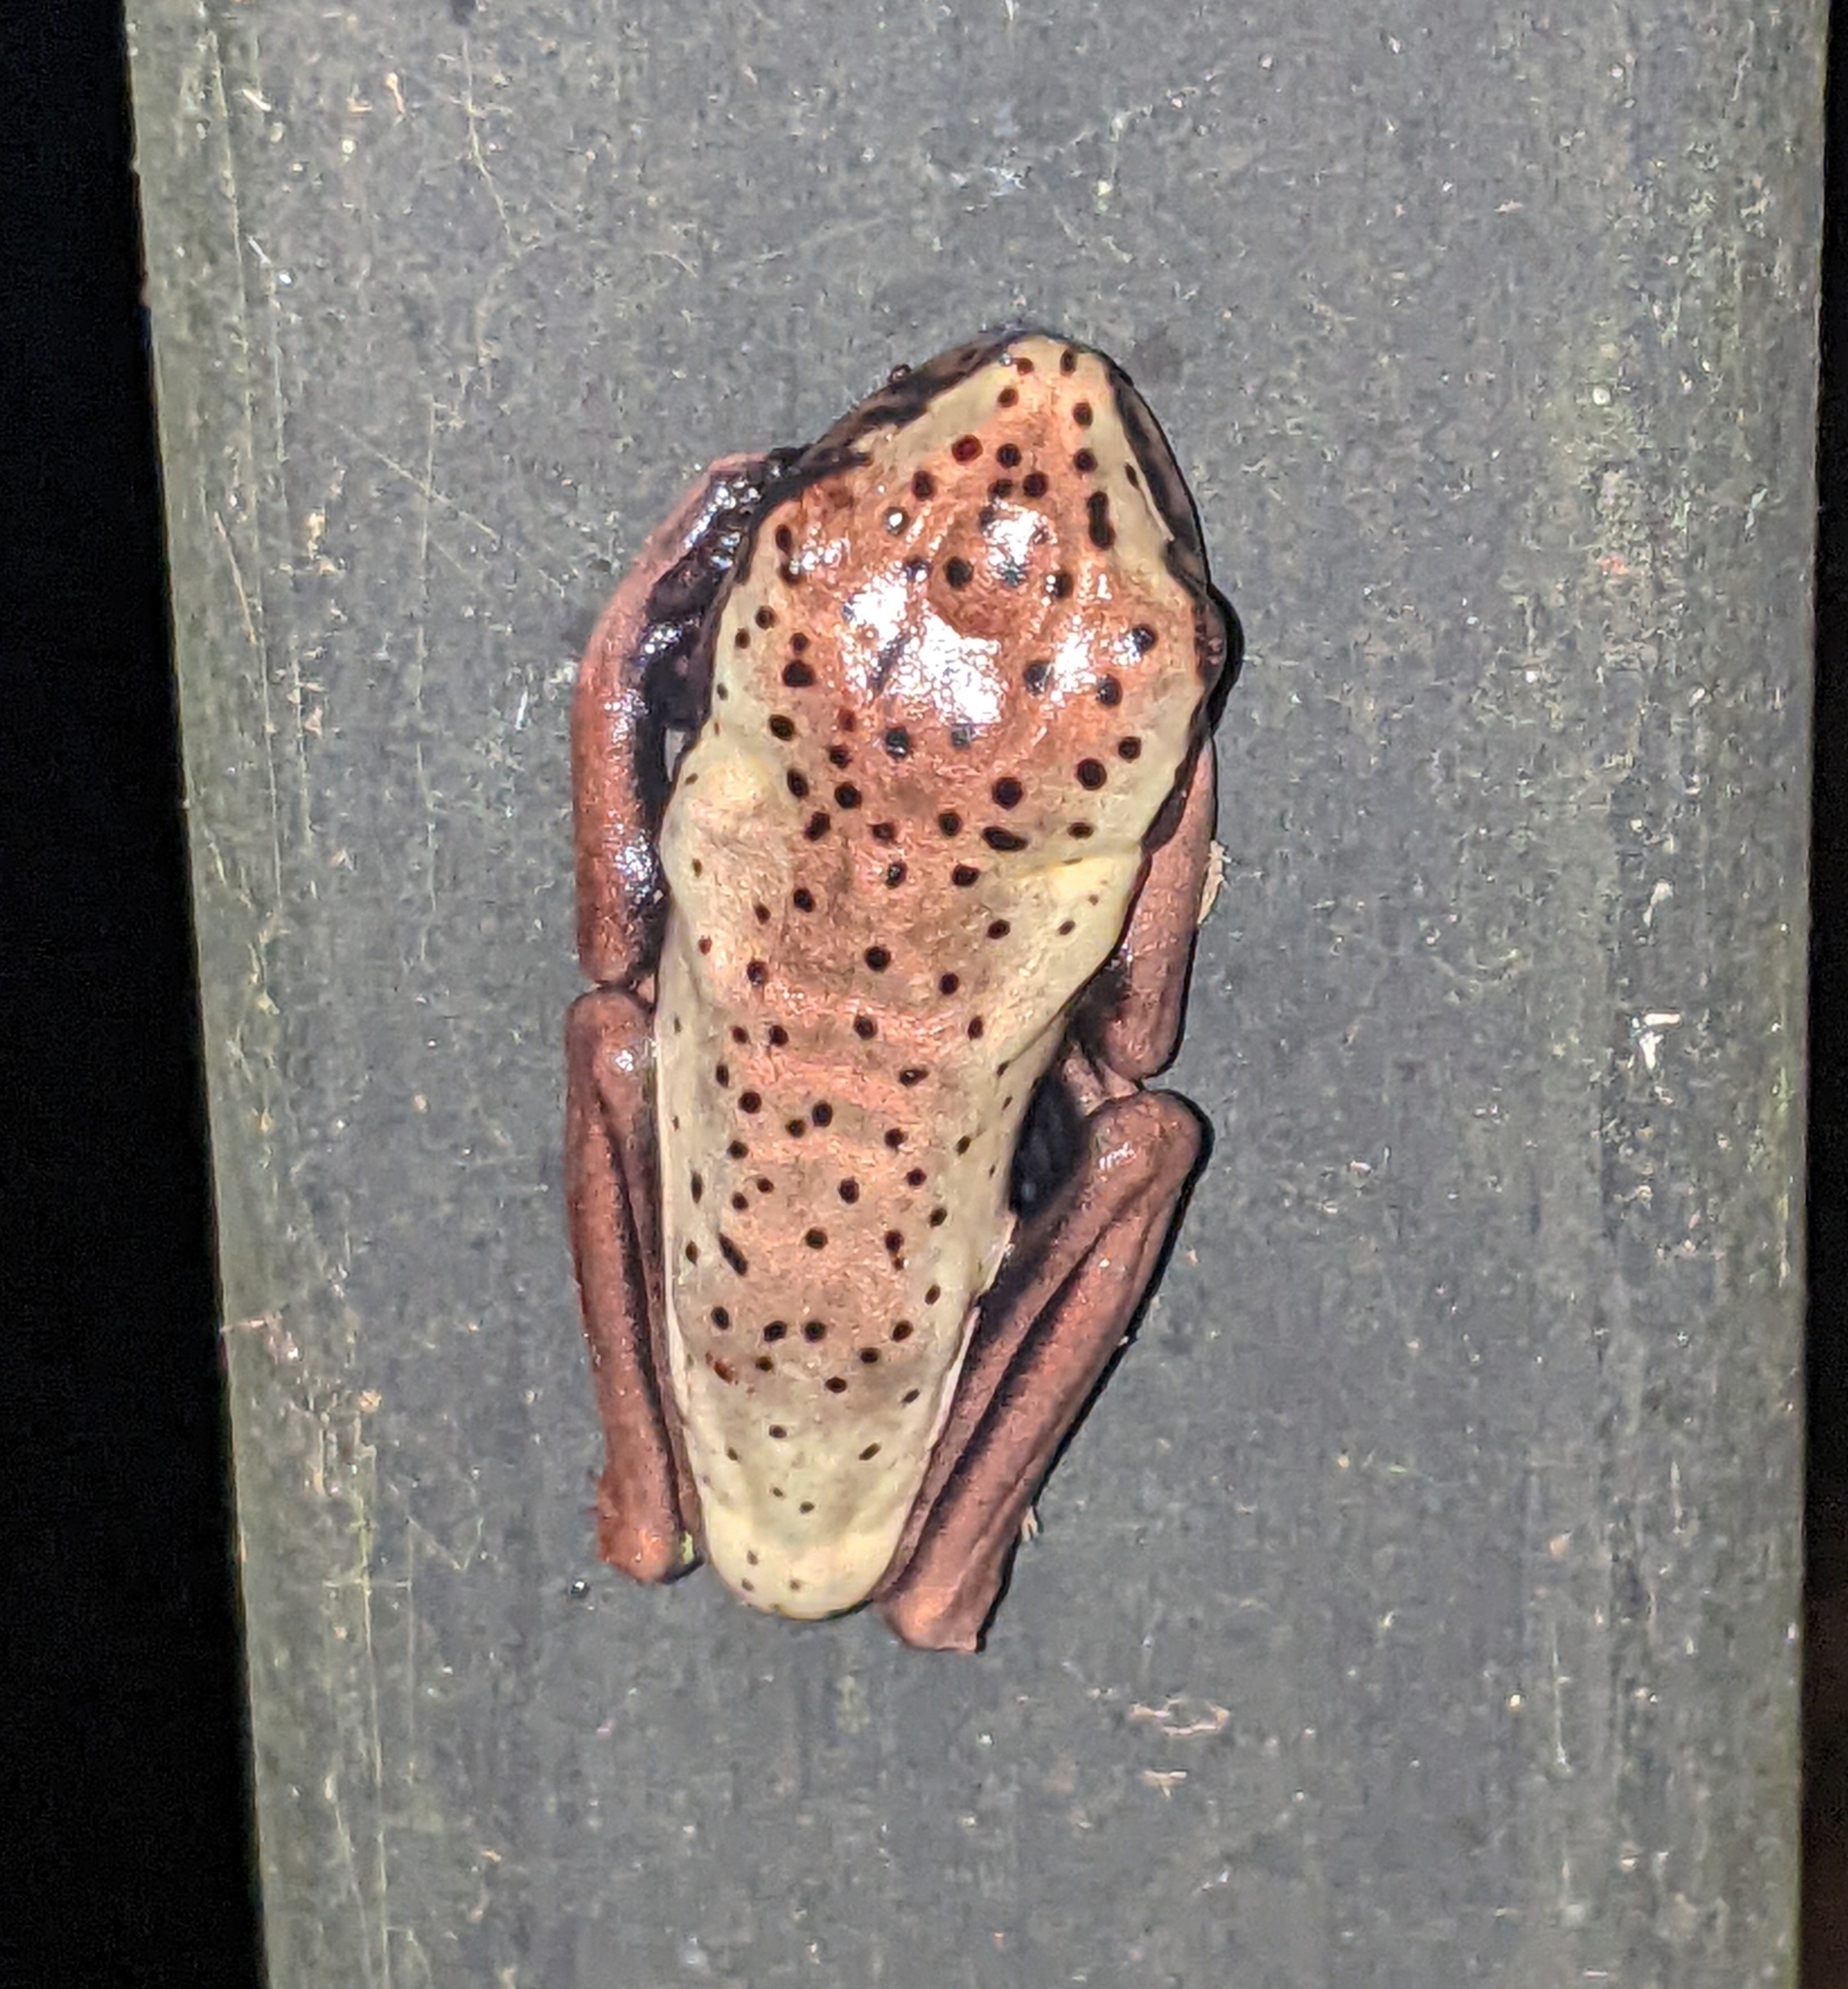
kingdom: Animalia
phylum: Chordata
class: Amphibia
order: Anura
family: Hylidae
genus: Boana
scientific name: Boana geographica
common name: Map treefrog
